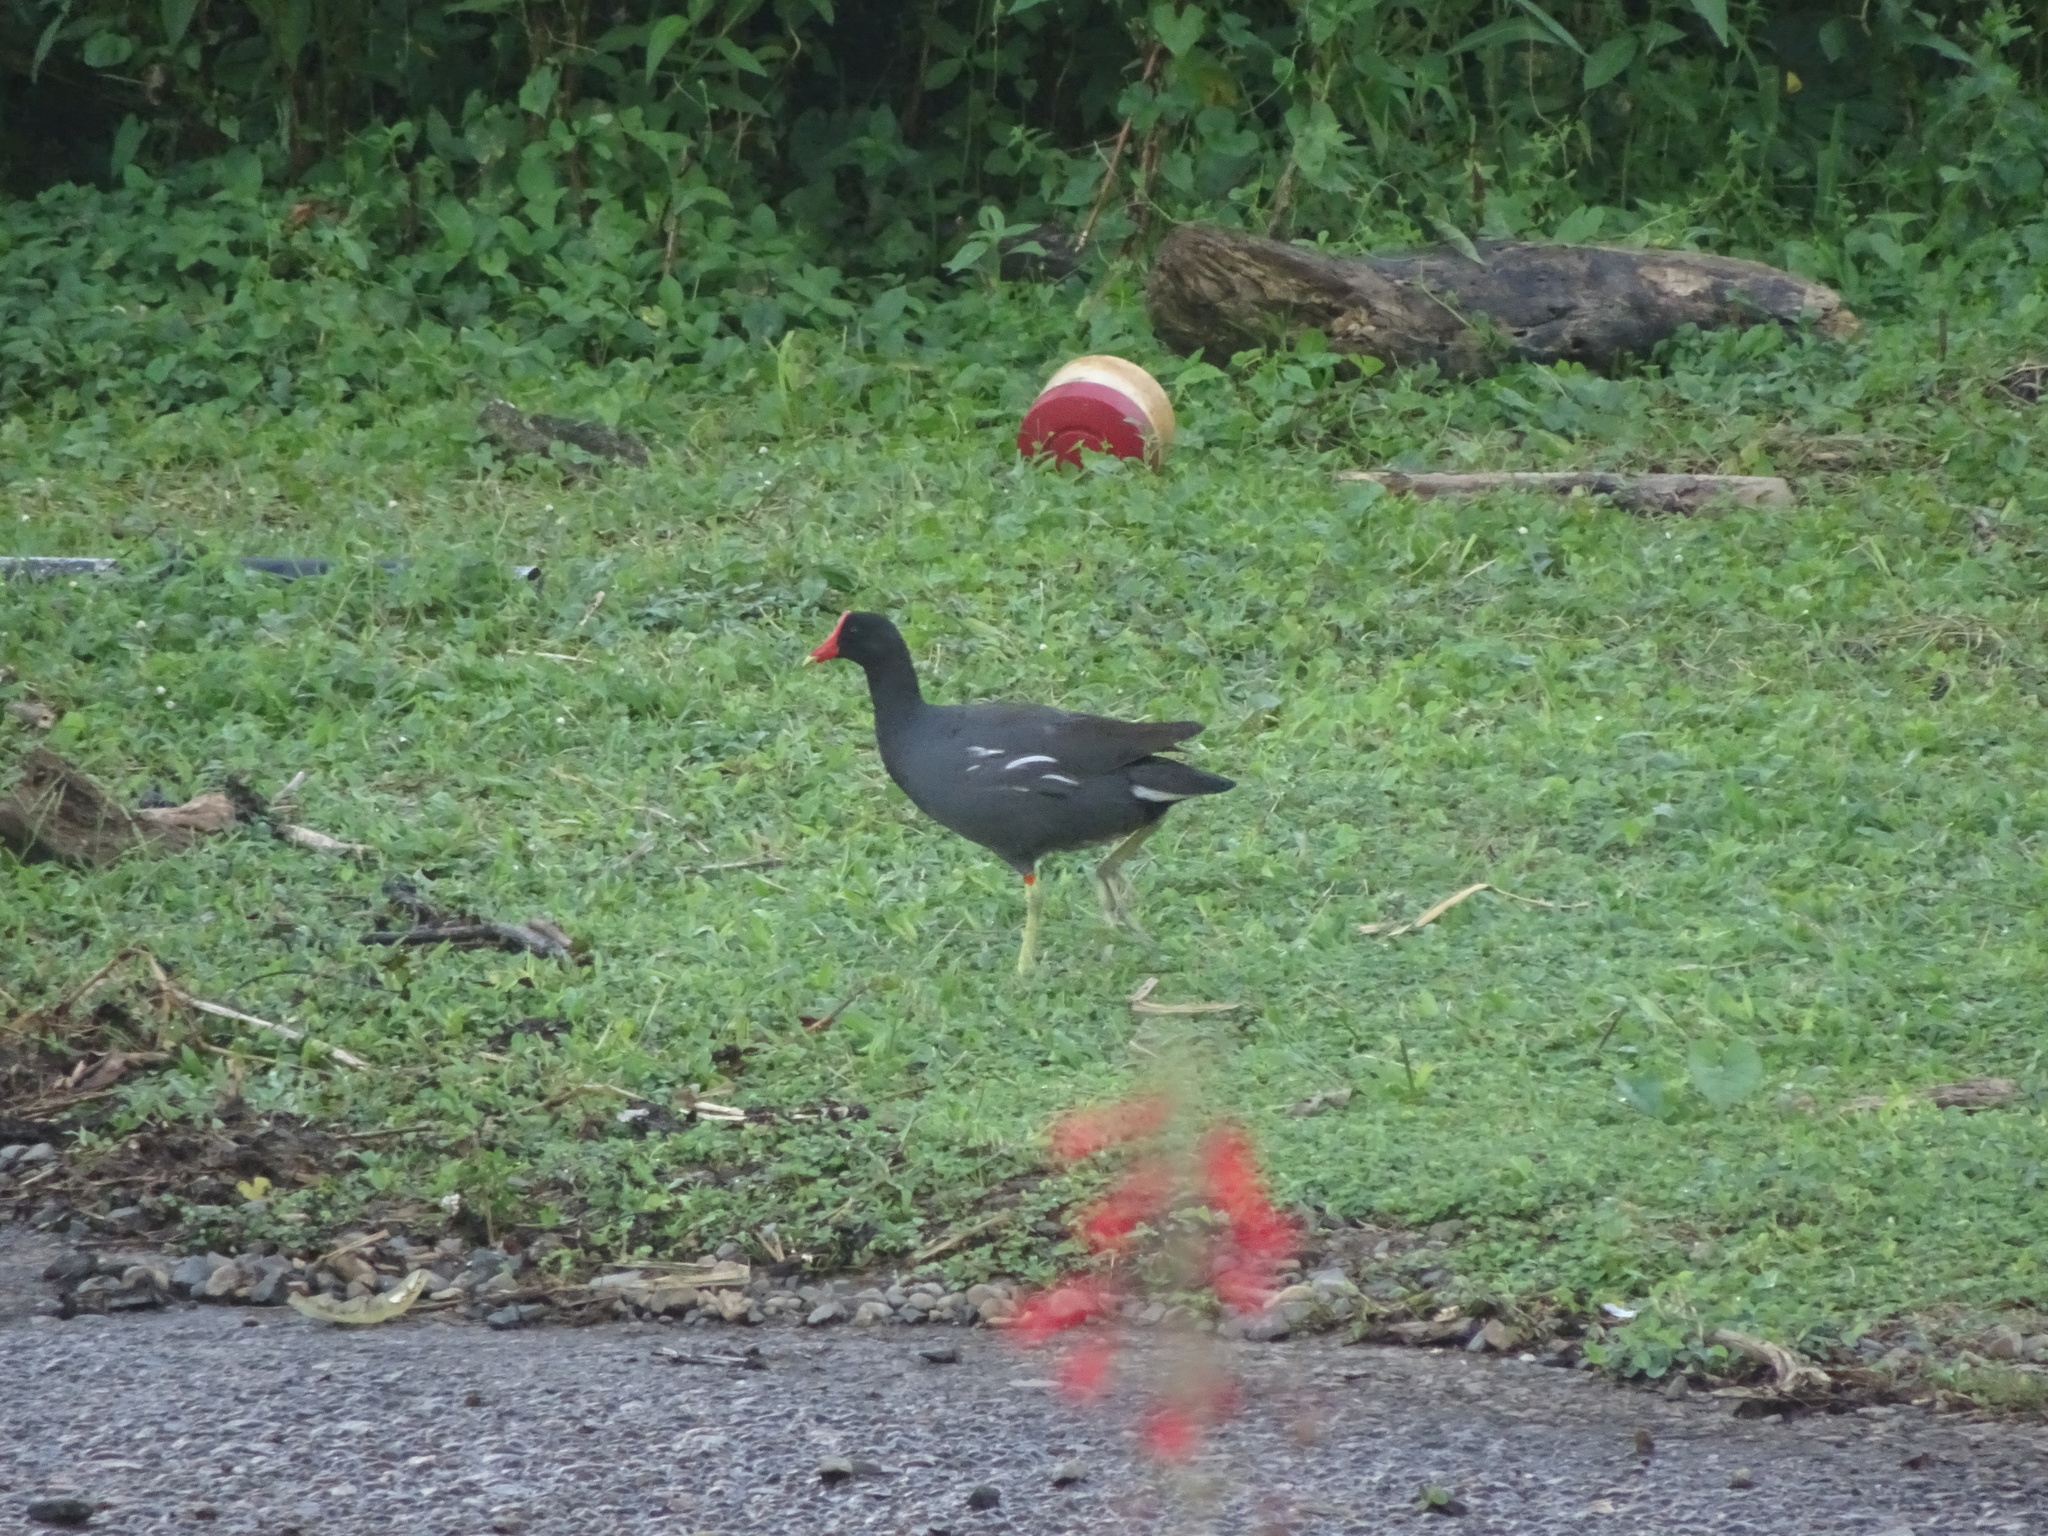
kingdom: Animalia
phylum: Chordata
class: Aves
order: Gruiformes
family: Rallidae
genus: Gallinula
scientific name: Gallinula chloropus
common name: Common moorhen
